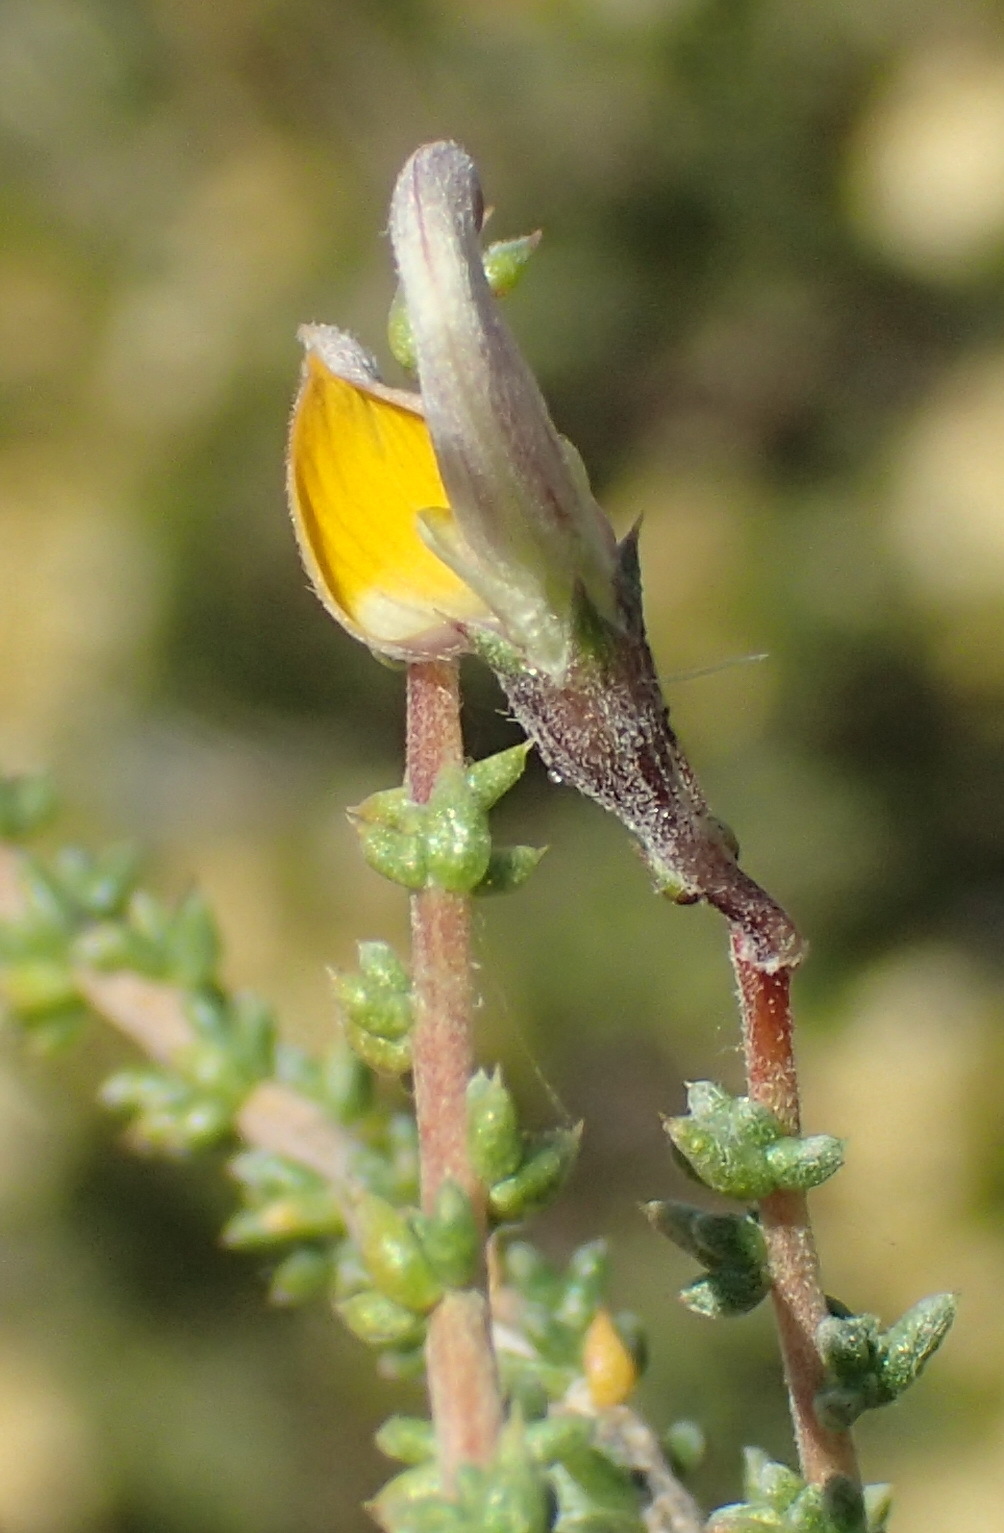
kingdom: Plantae
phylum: Tracheophyta
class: Magnoliopsida
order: Fabales
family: Fabaceae
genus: Aspalathus
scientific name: Aspalathus pulicifolia
